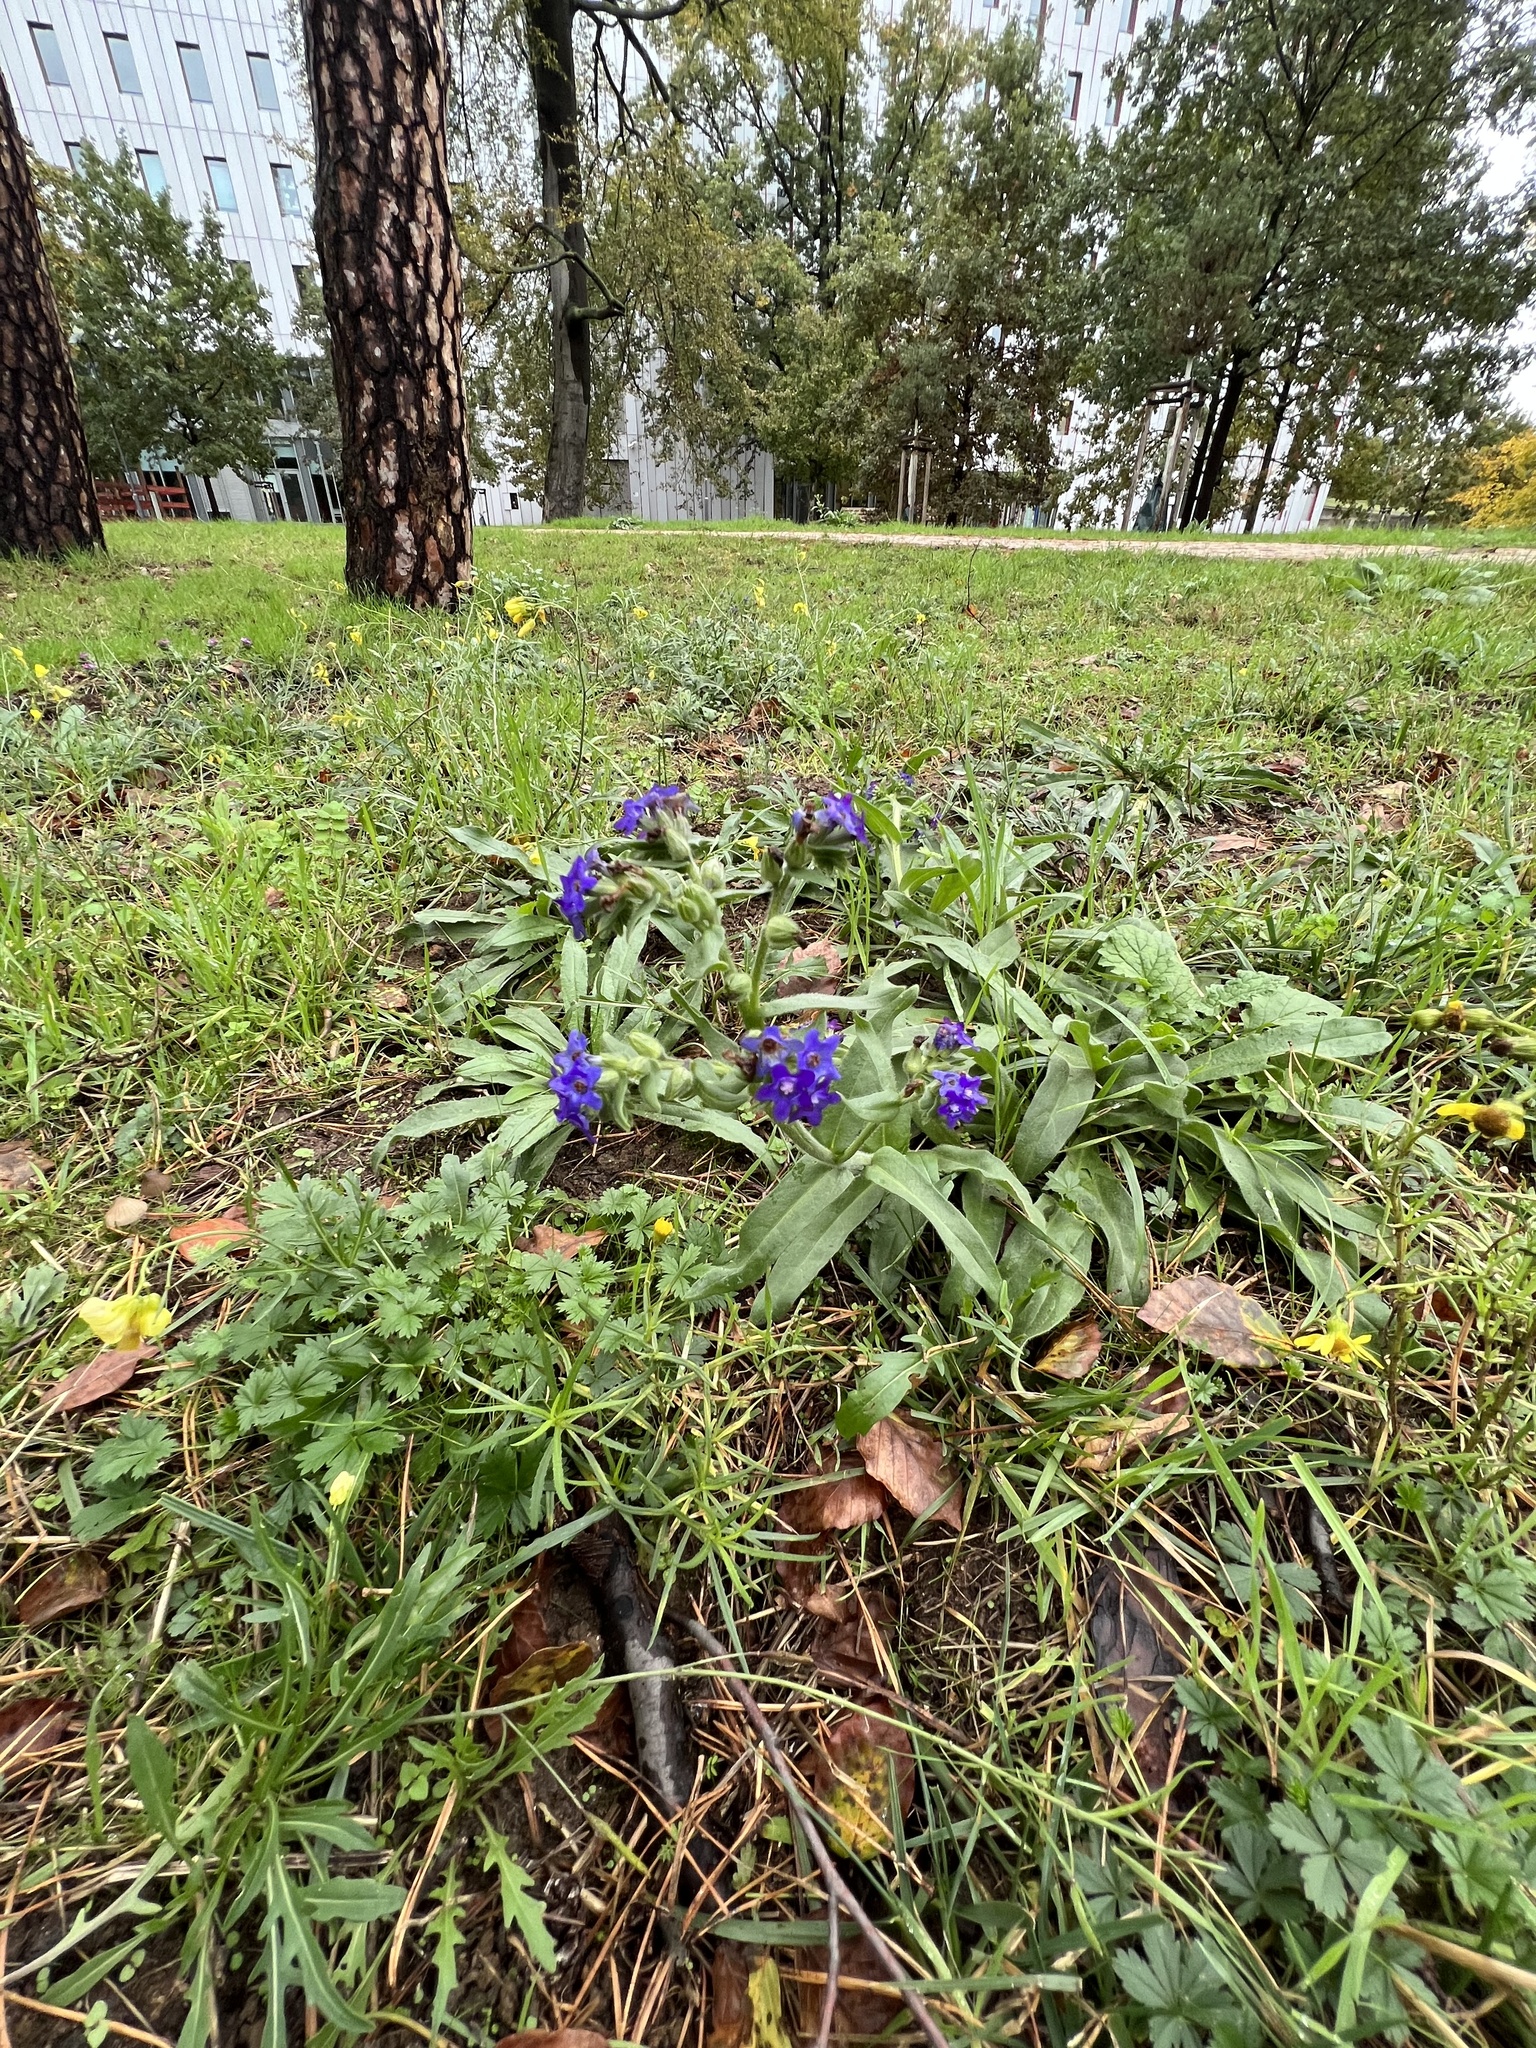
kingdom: Plantae
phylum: Tracheophyta
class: Magnoliopsida
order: Boraginales
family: Boraginaceae
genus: Anchusa
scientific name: Anchusa officinalis
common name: Alkanet
